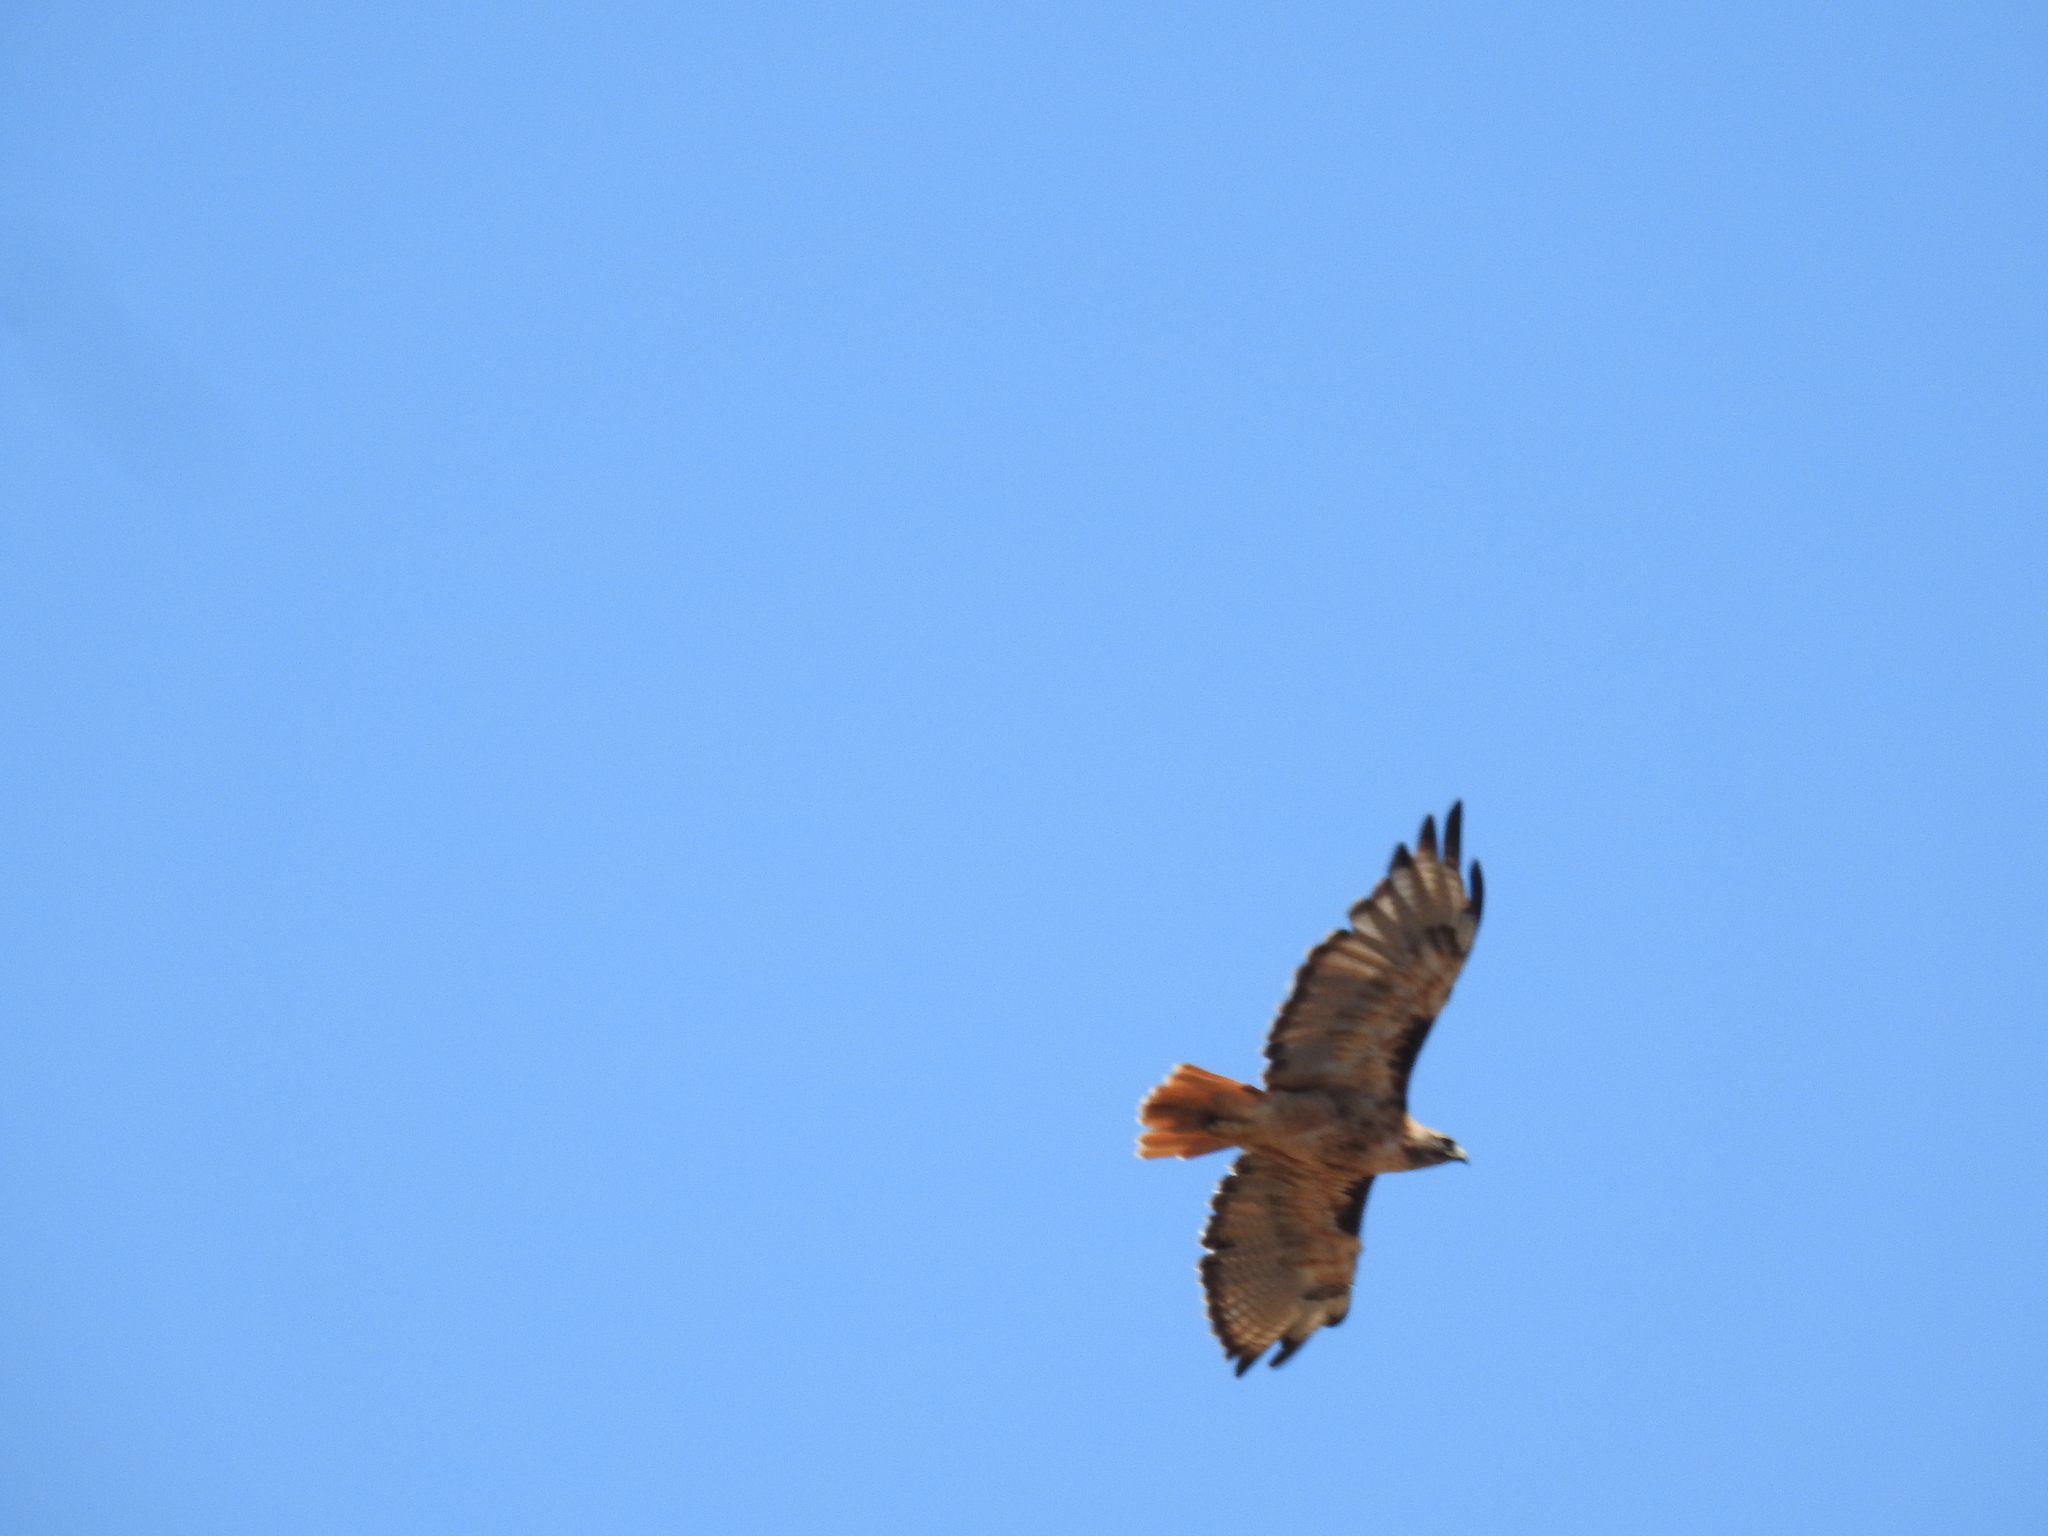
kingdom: Animalia
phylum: Chordata
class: Aves
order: Accipitriformes
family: Accipitridae
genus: Buteo
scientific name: Buteo jamaicensis
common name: Red-tailed hawk
